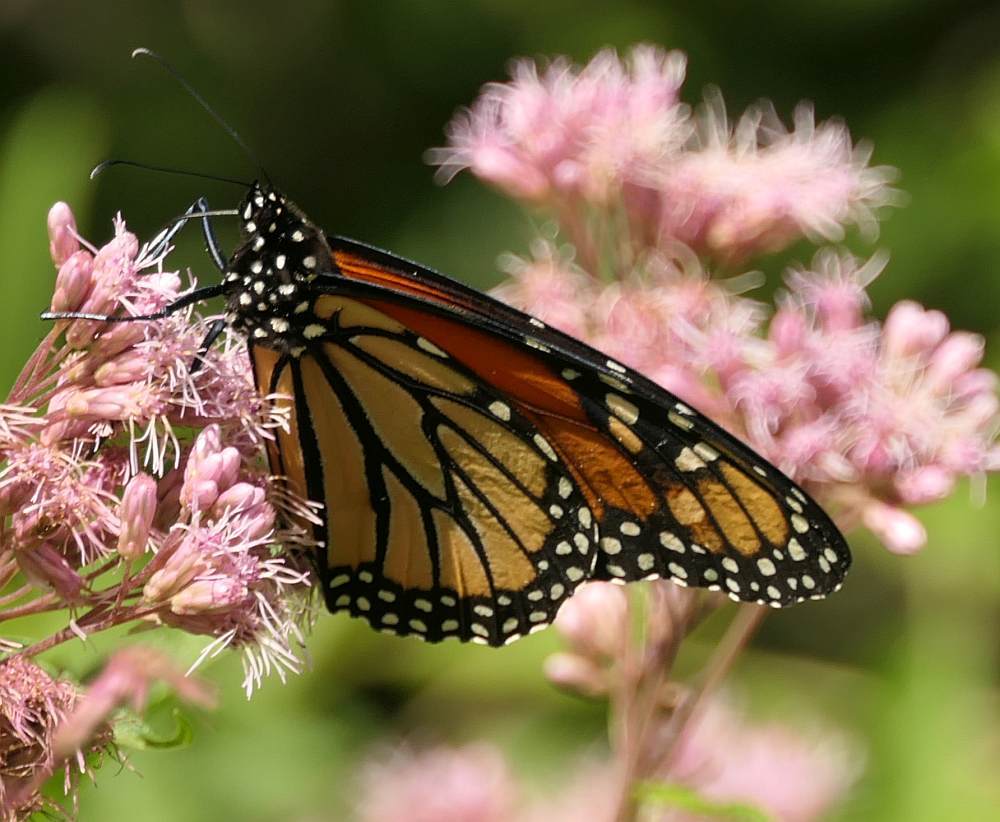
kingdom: Animalia
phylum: Arthropoda
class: Insecta
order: Lepidoptera
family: Nymphalidae
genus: Danaus
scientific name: Danaus plexippus
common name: Monarch
